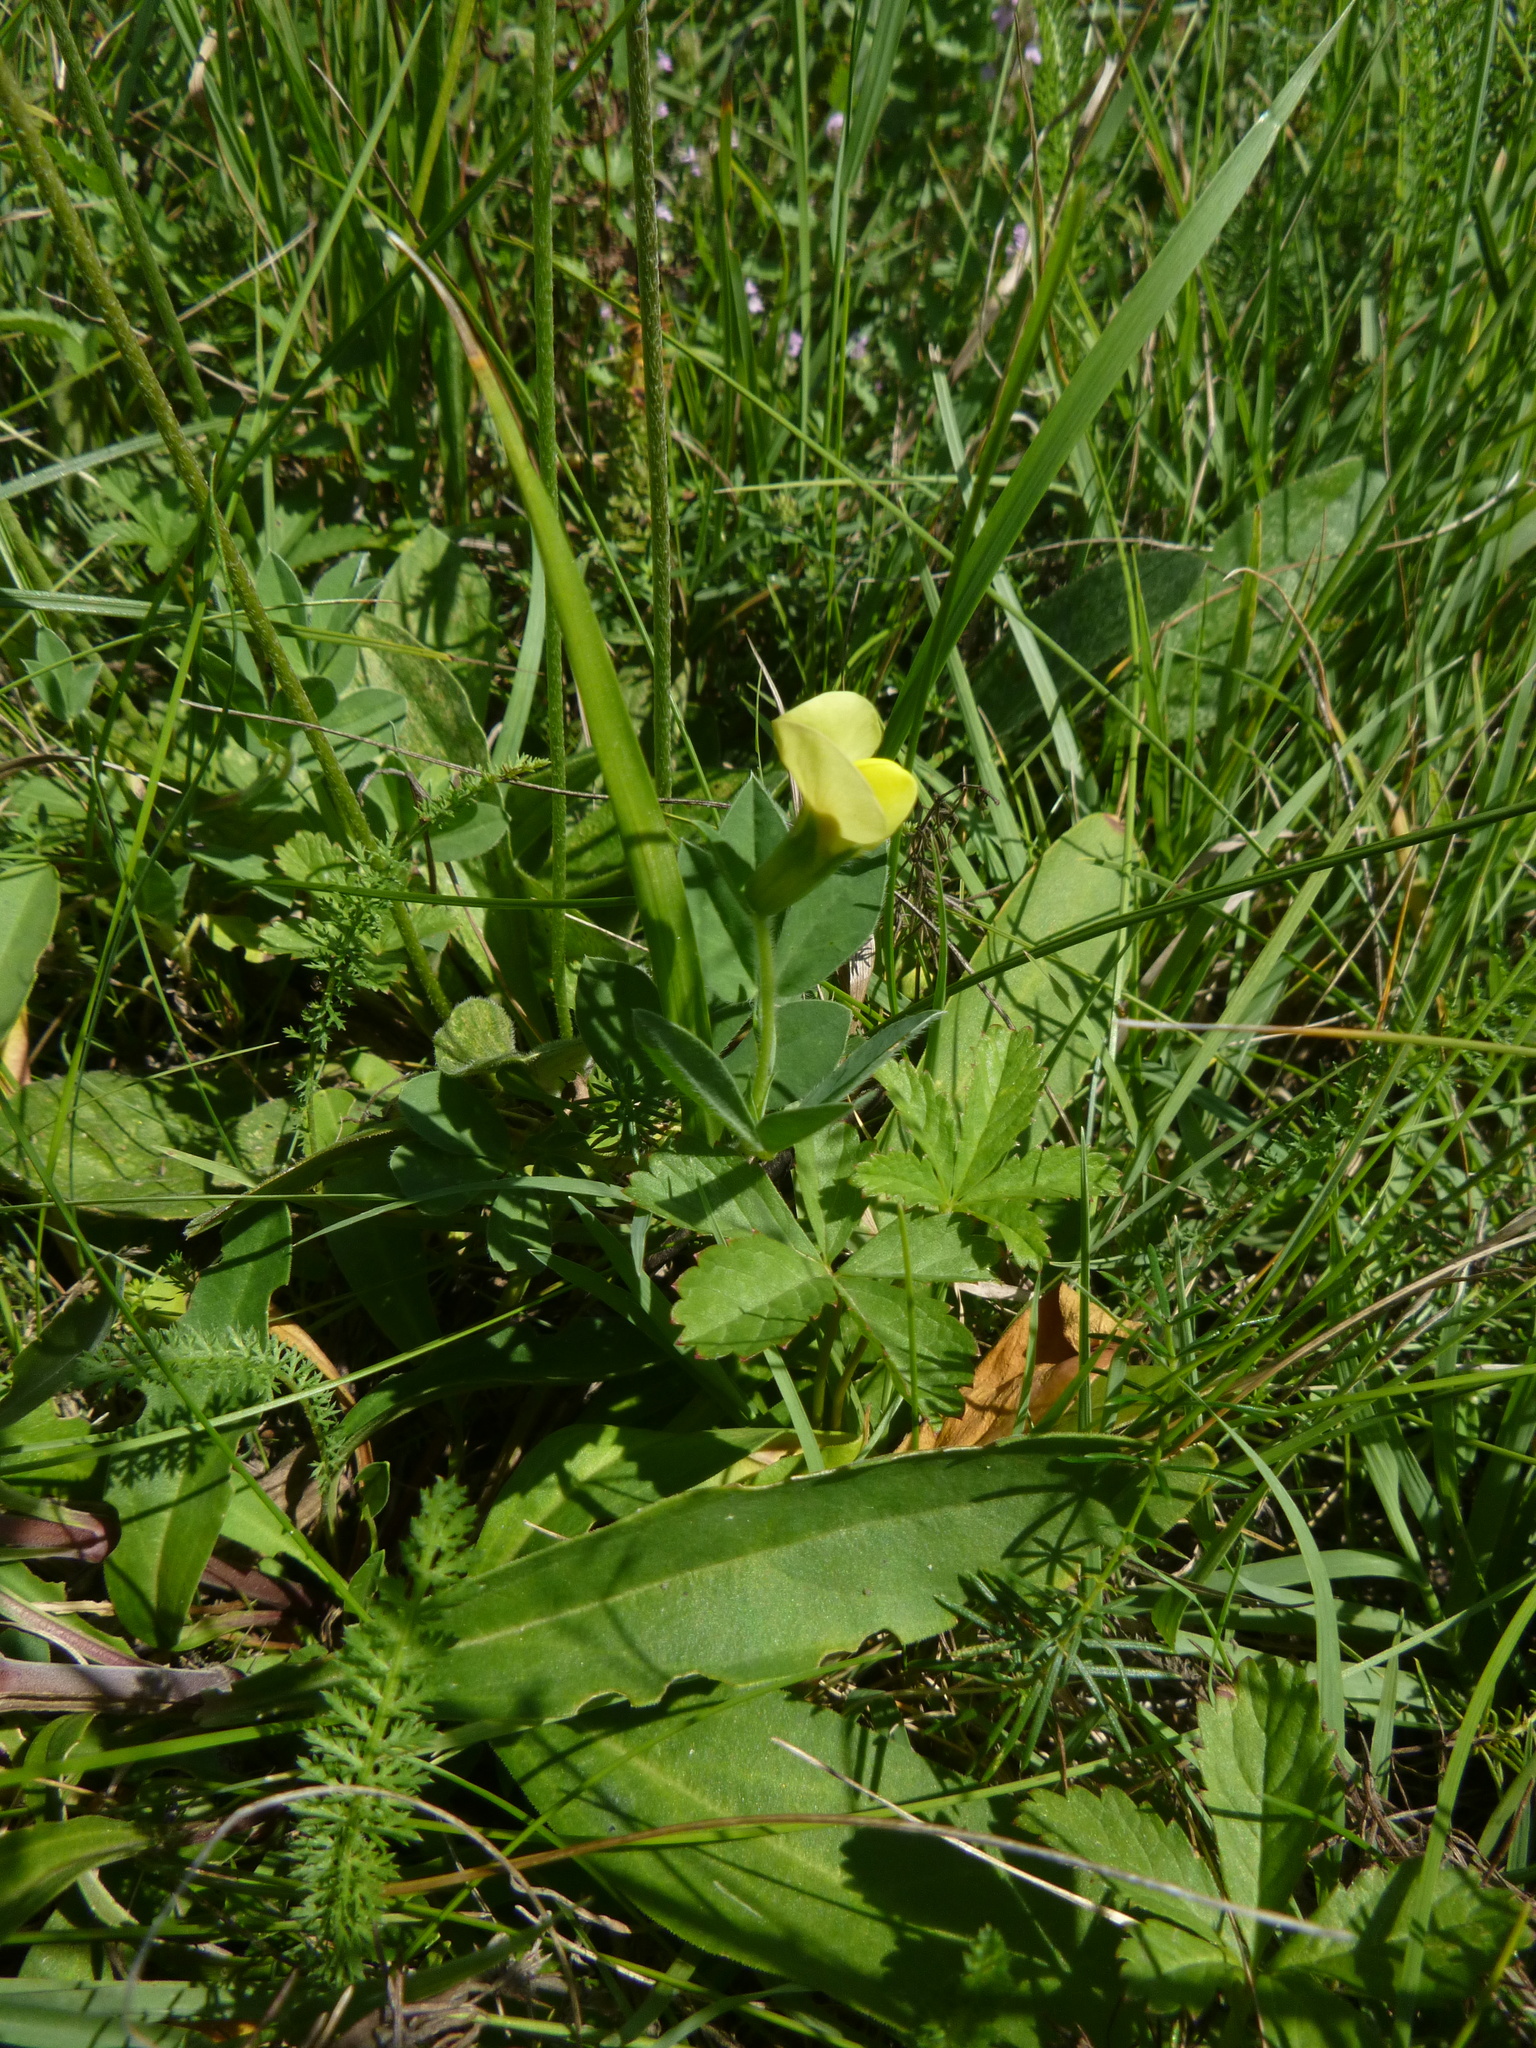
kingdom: Plantae
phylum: Tracheophyta
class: Magnoliopsida
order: Fabales
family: Fabaceae
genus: Lotus
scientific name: Lotus maritimus
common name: Dragon's-teeth
